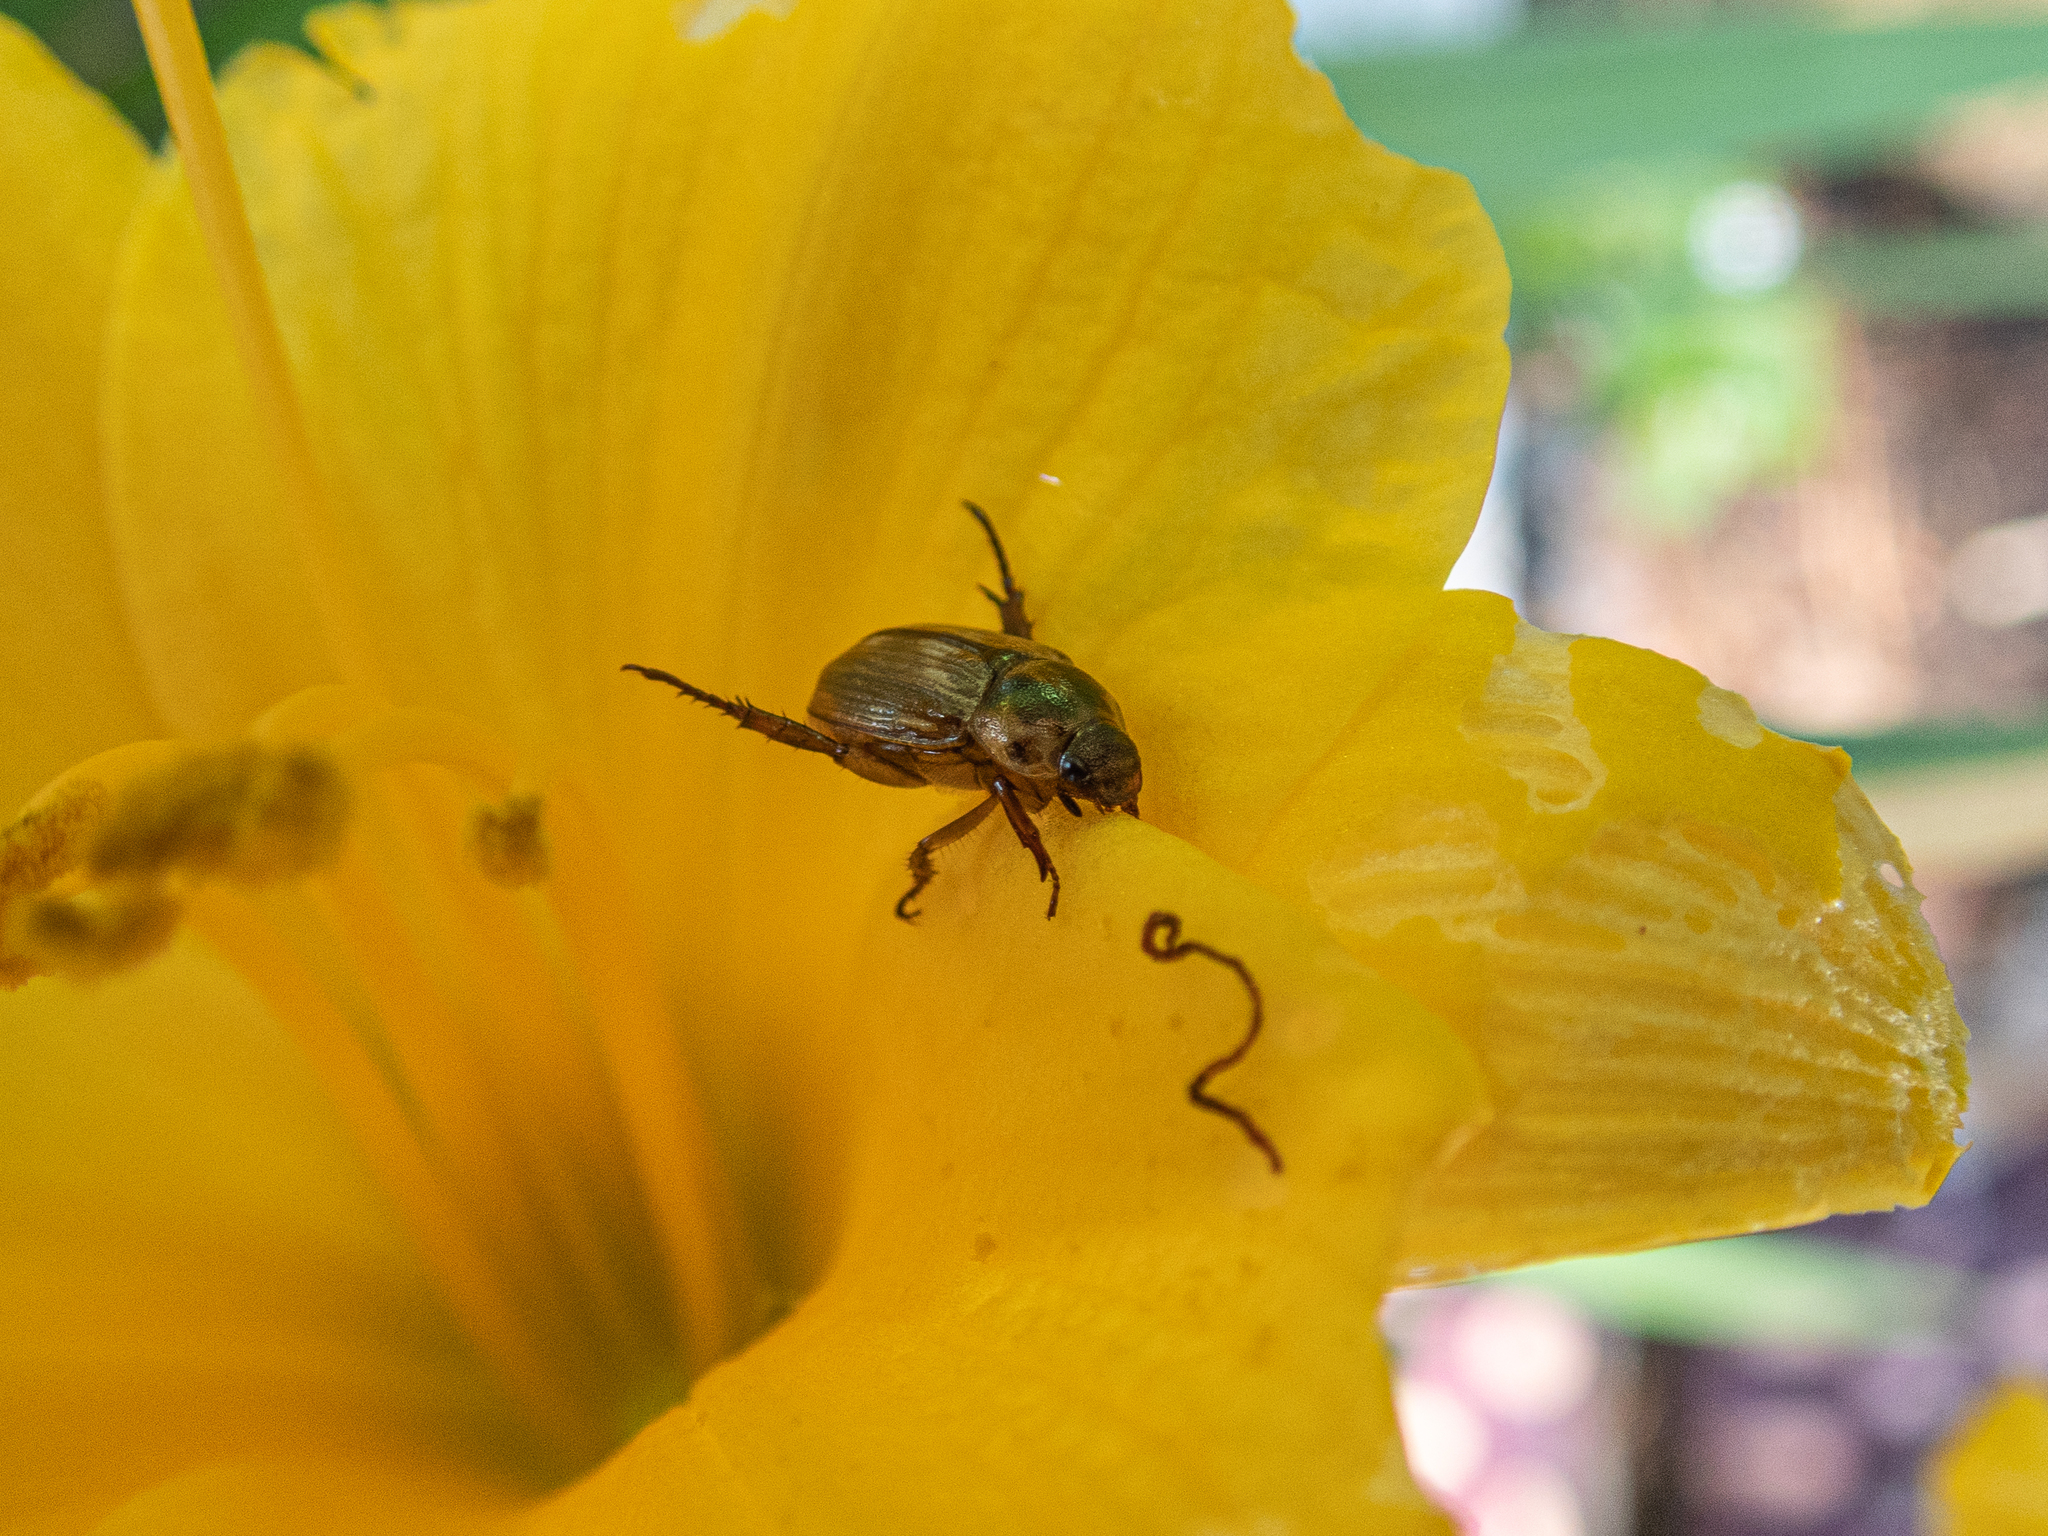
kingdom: Animalia
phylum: Arthropoda
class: Insecta
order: Coleoptera
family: Scarabaeidae
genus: Exomala
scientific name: Exomala orientalis
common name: Oriental beetle
